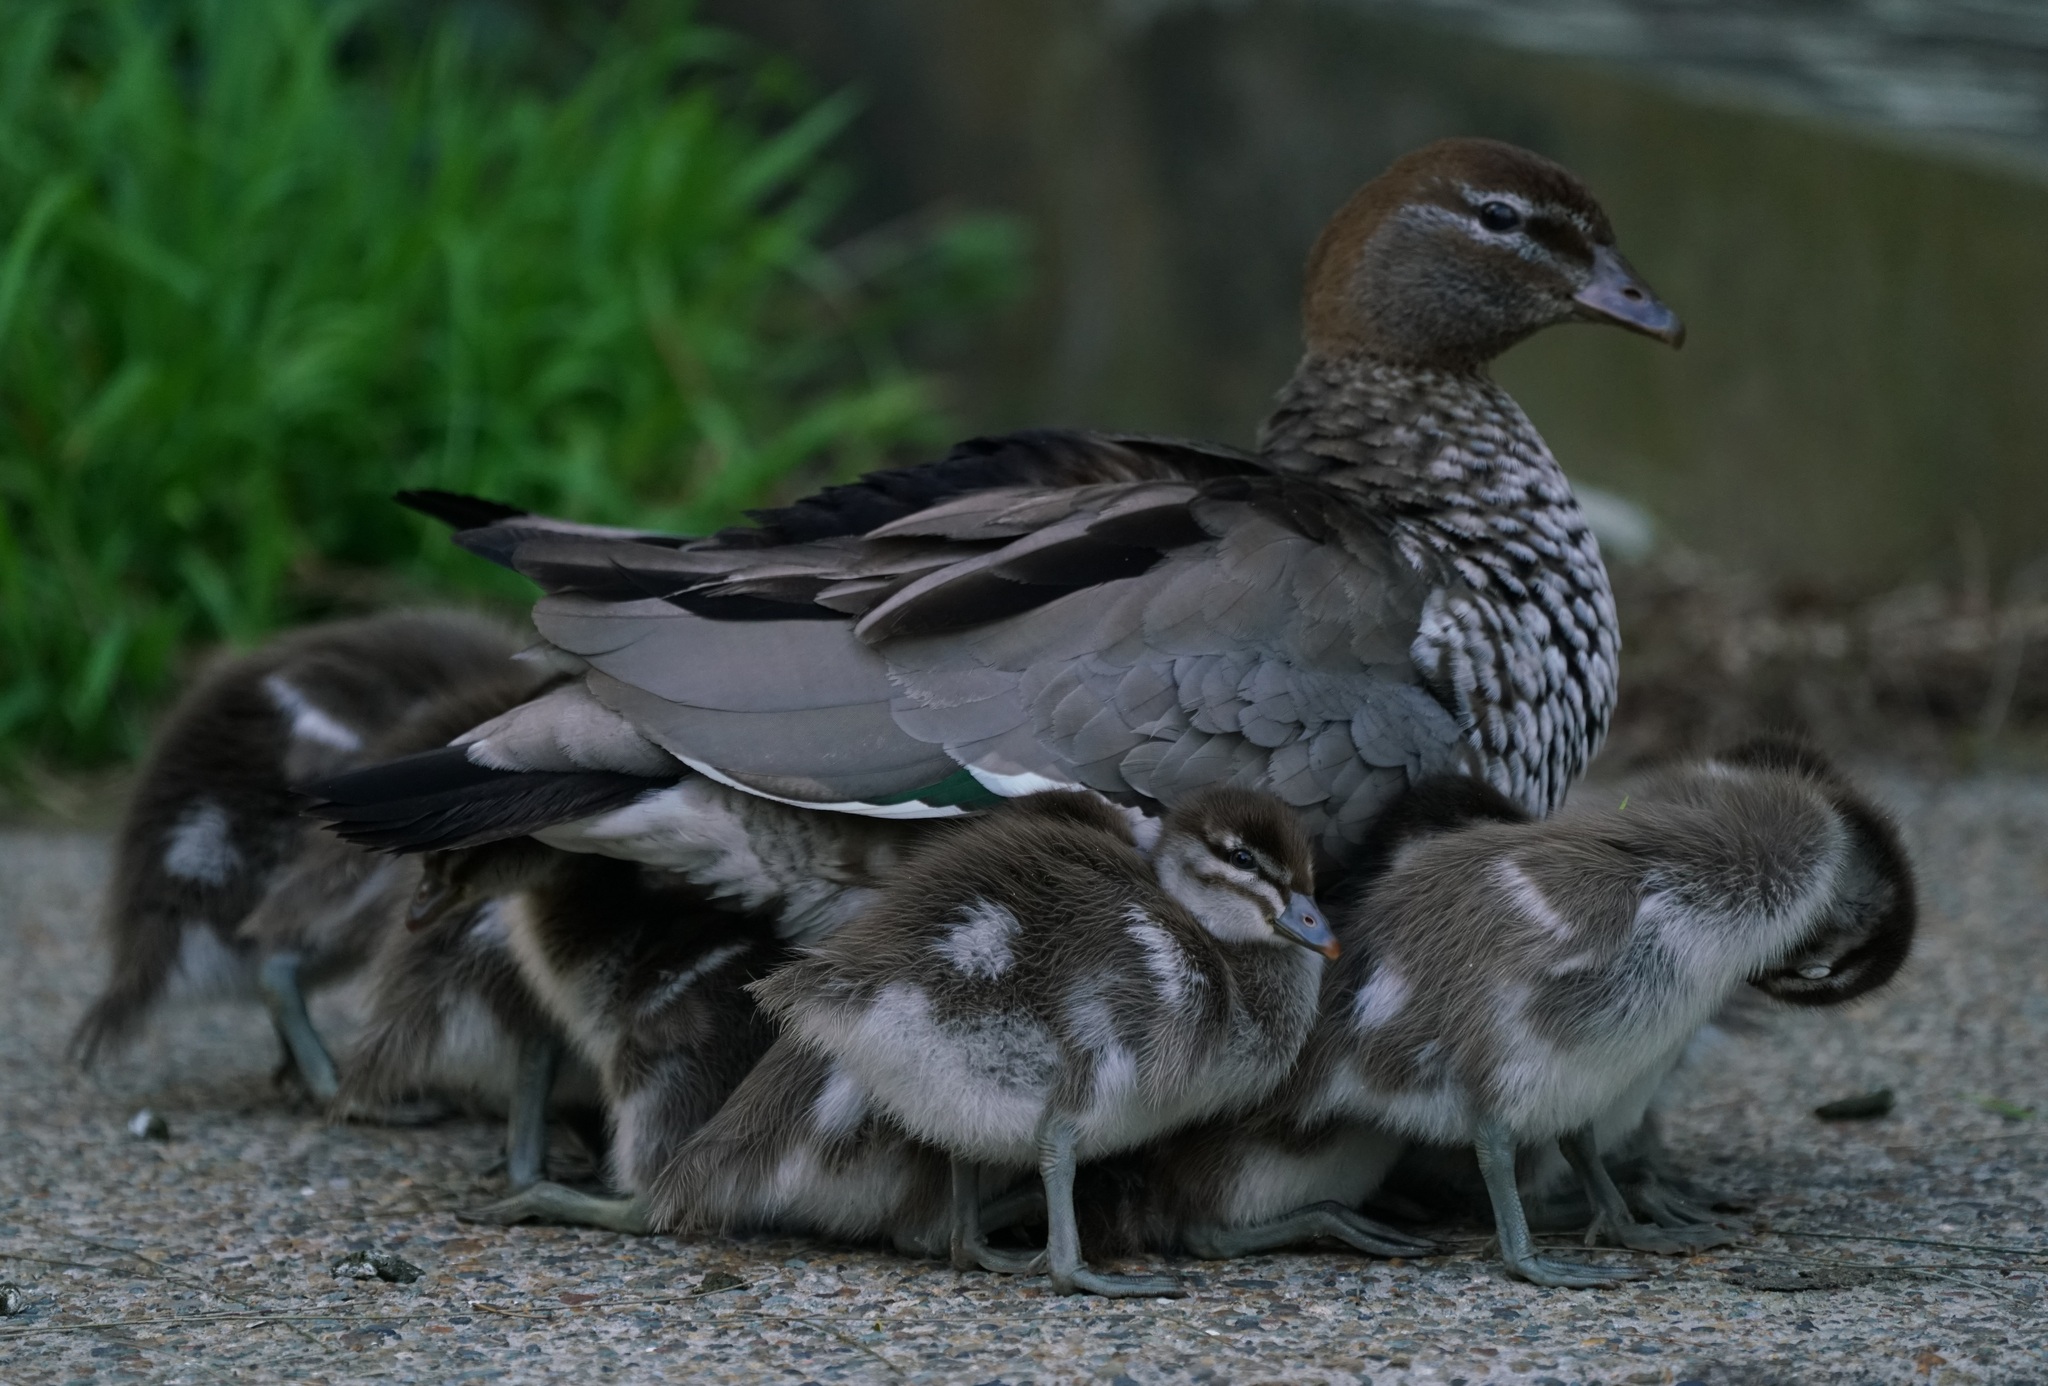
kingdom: Animalia
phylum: Chordata
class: Aves
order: Anseriformes
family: Anatidae
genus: Chenonetta
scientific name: Chenonetta jubata
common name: Maned duck
